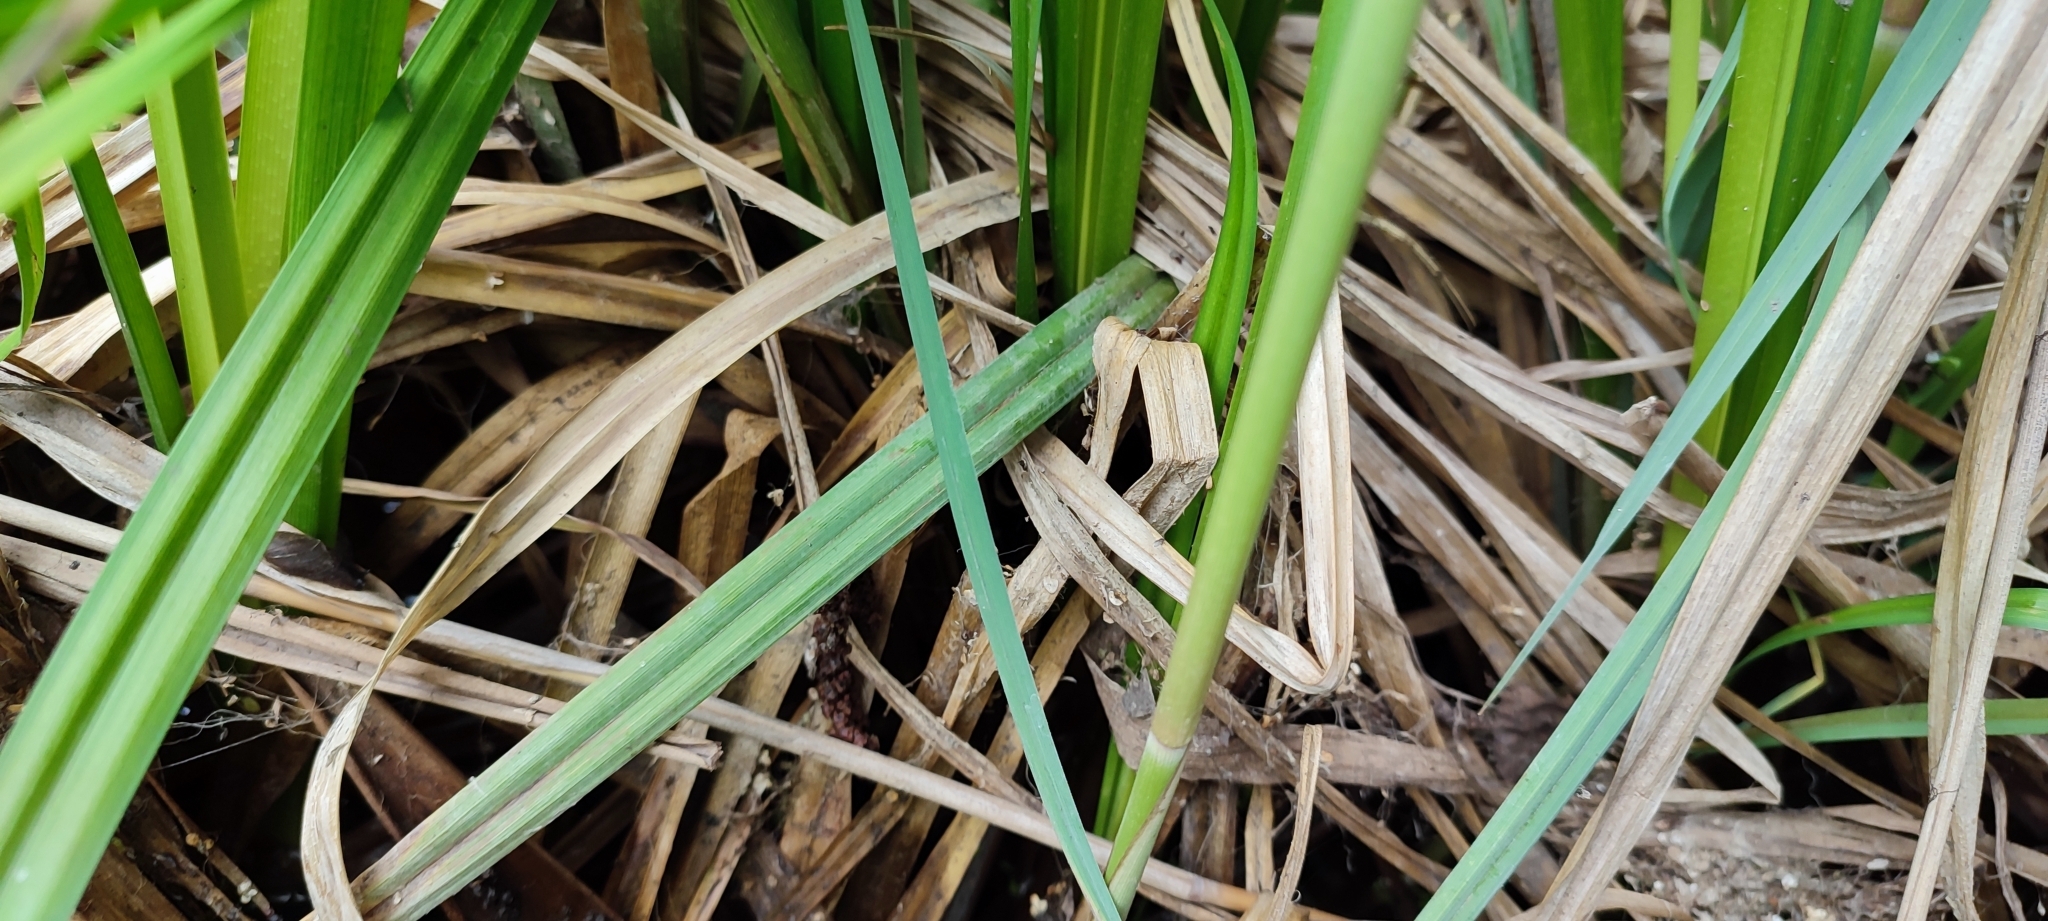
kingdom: Plantae
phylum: Tracheophyta
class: Liliopsida
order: Poales
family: Cyperaceae
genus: Carex
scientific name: Carex riparia
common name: Greater pond-sedge
